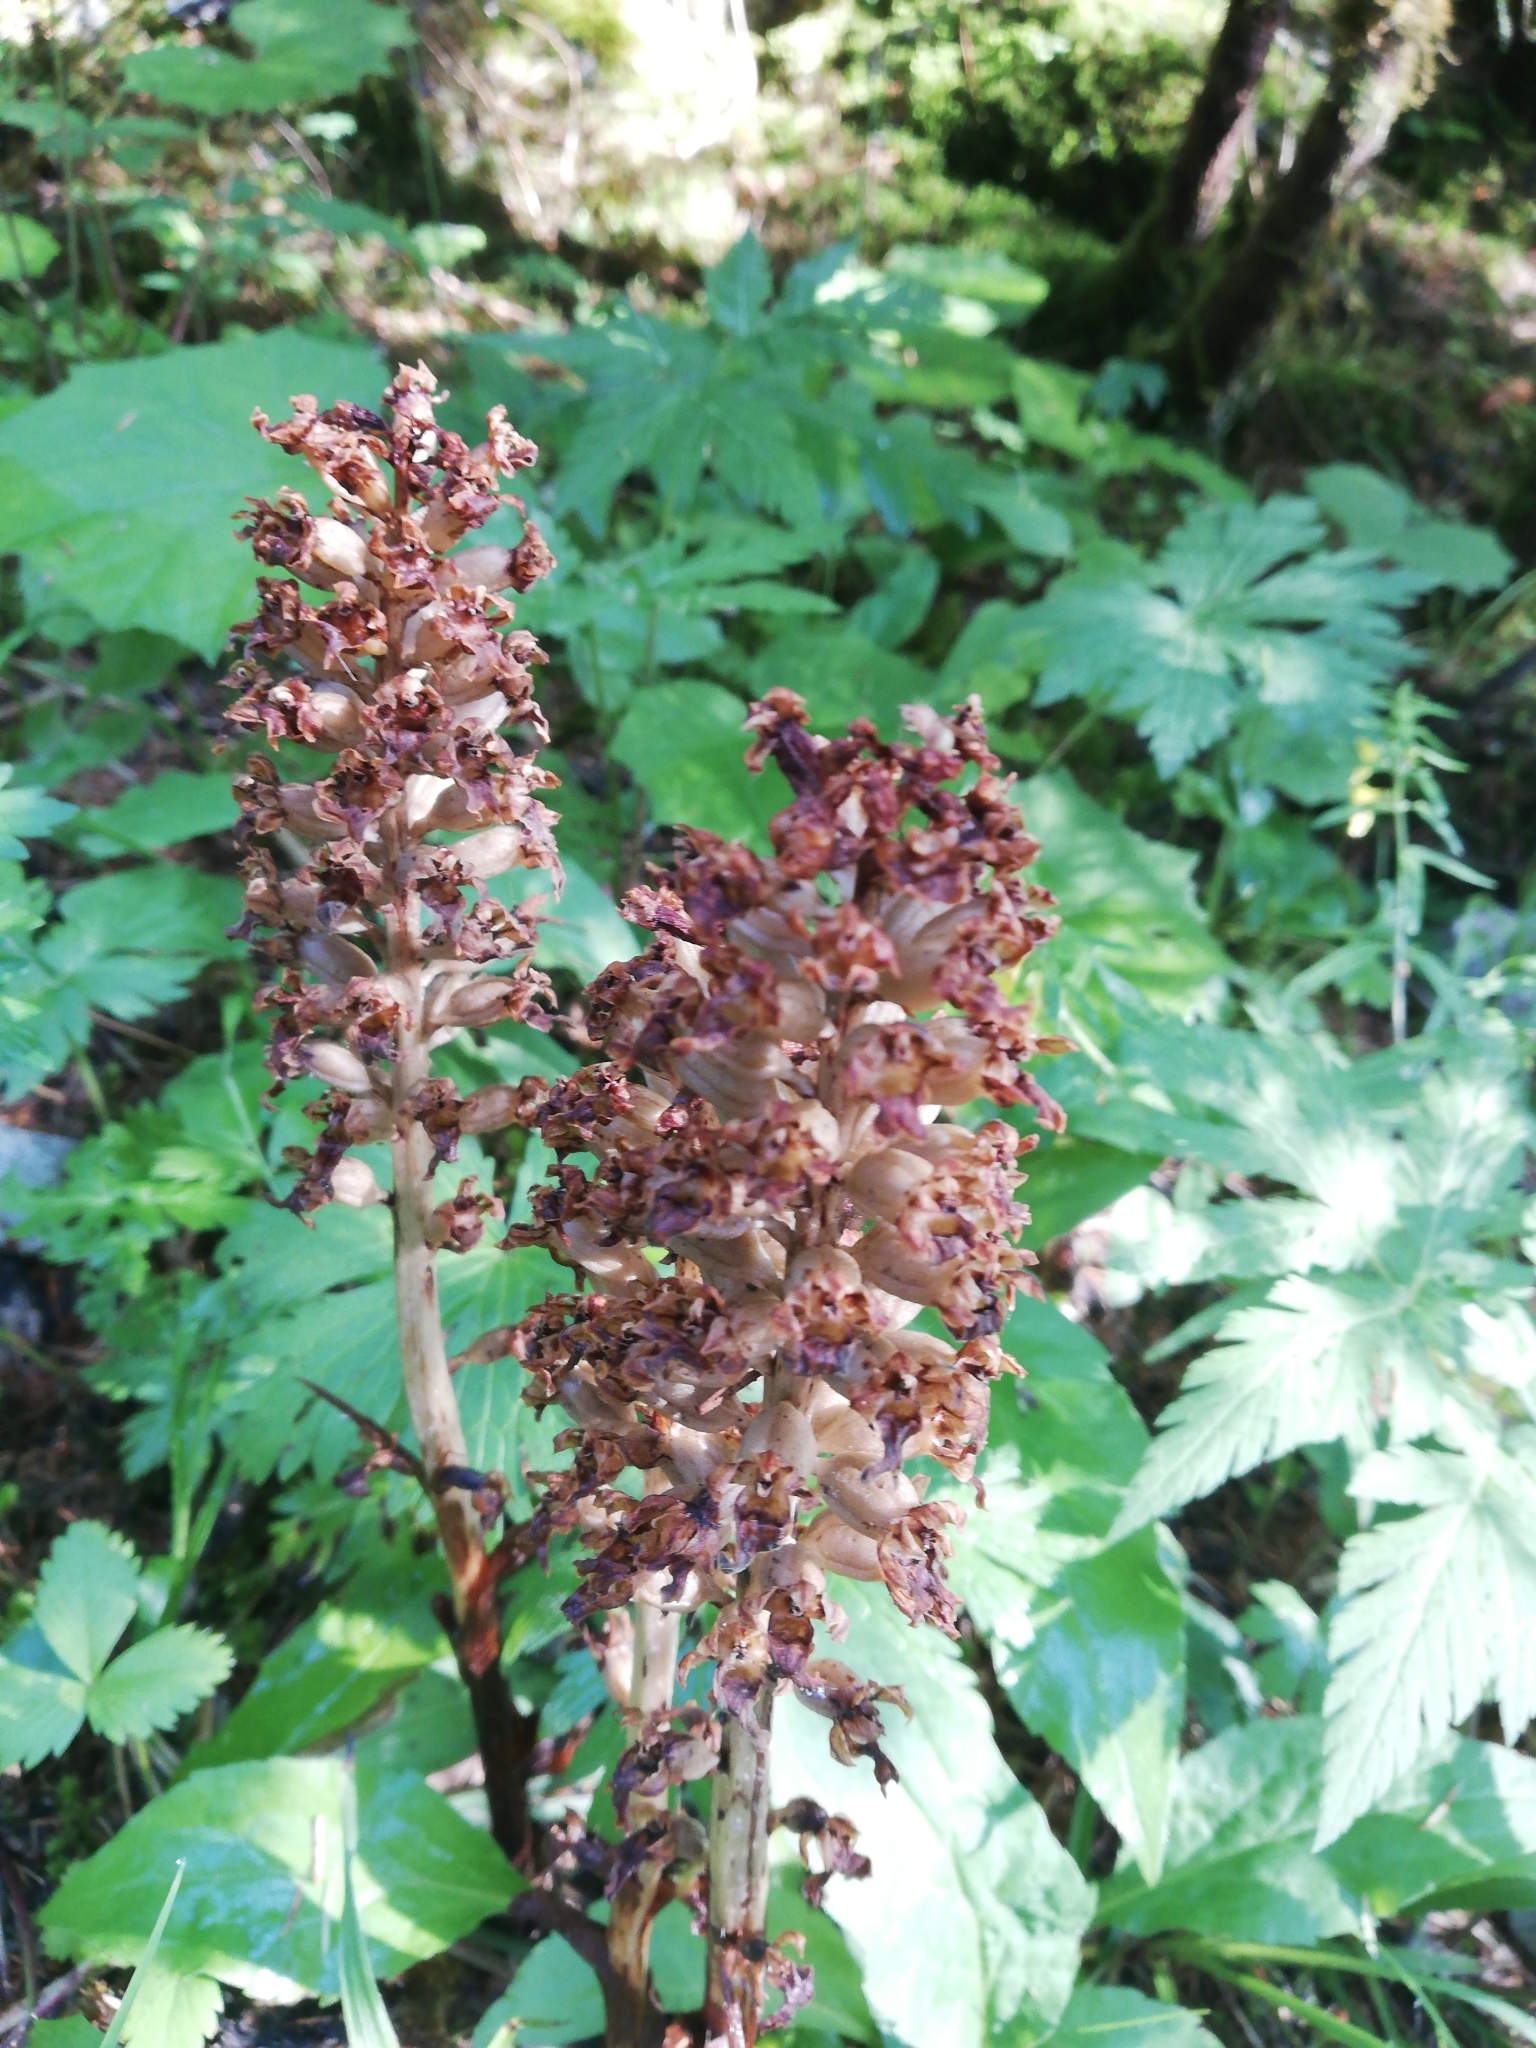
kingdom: Plantae
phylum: Tracheophyta
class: Liliopsida
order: Asparagales
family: Orchidaceae
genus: Neottia
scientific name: Neottia nidus-avis
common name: Bird's-nest orchid
